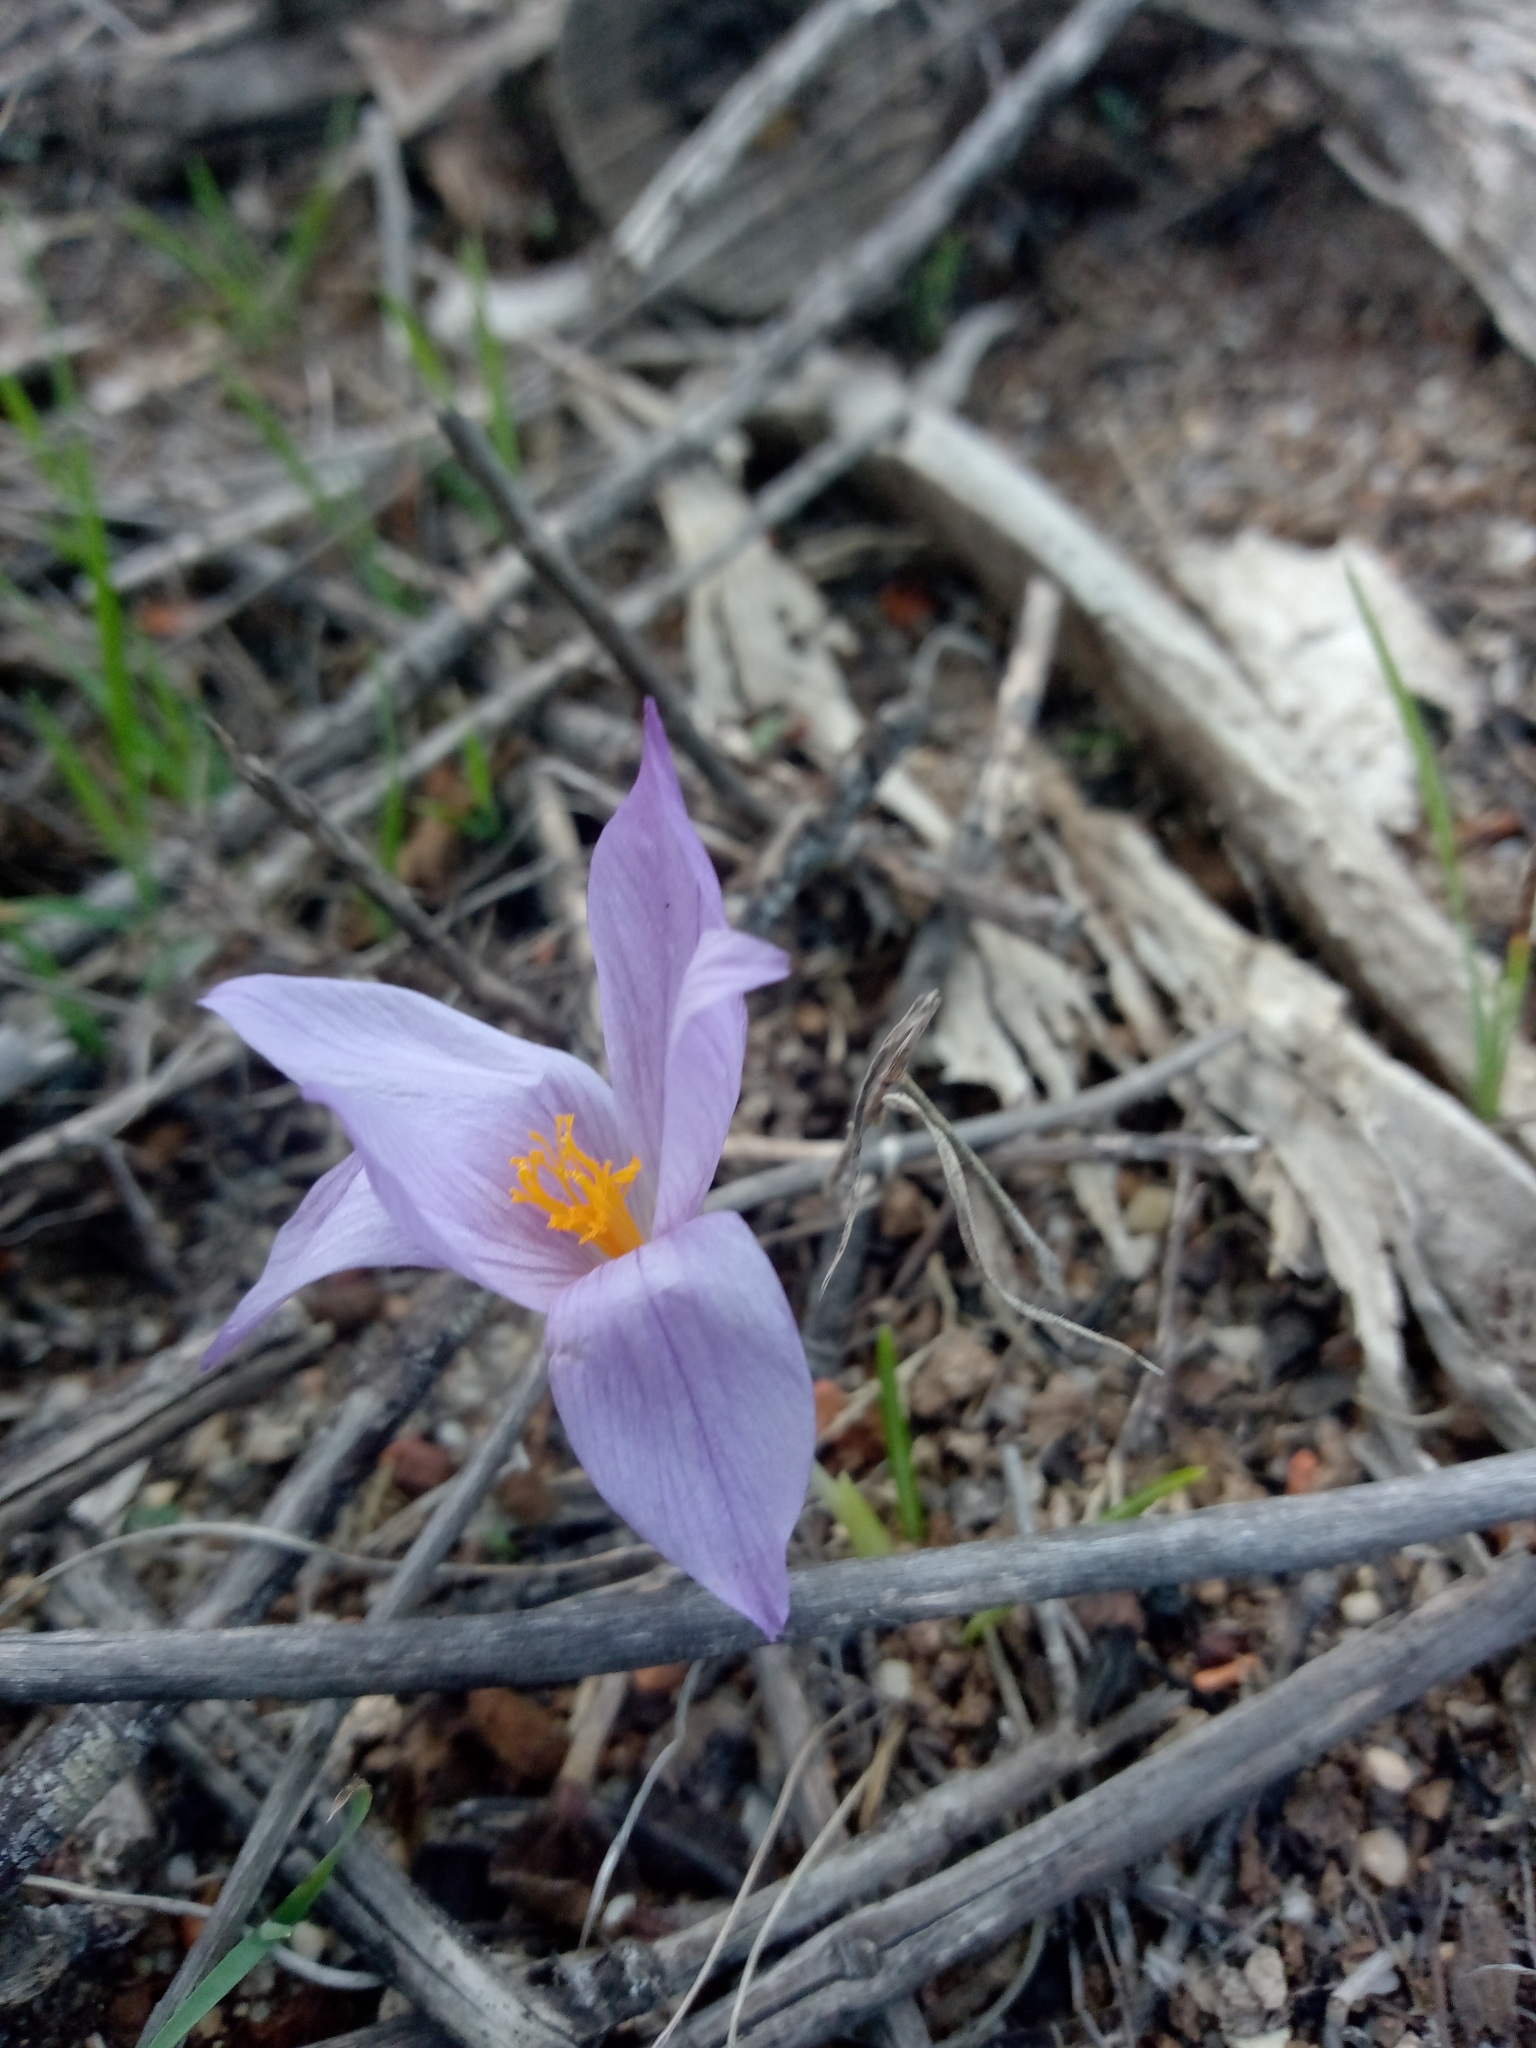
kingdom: Plantae
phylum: Tracheophyta
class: Liliopsida
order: Asparagales
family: Iridaceae
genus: Crocus
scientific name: Crocus serotinus
